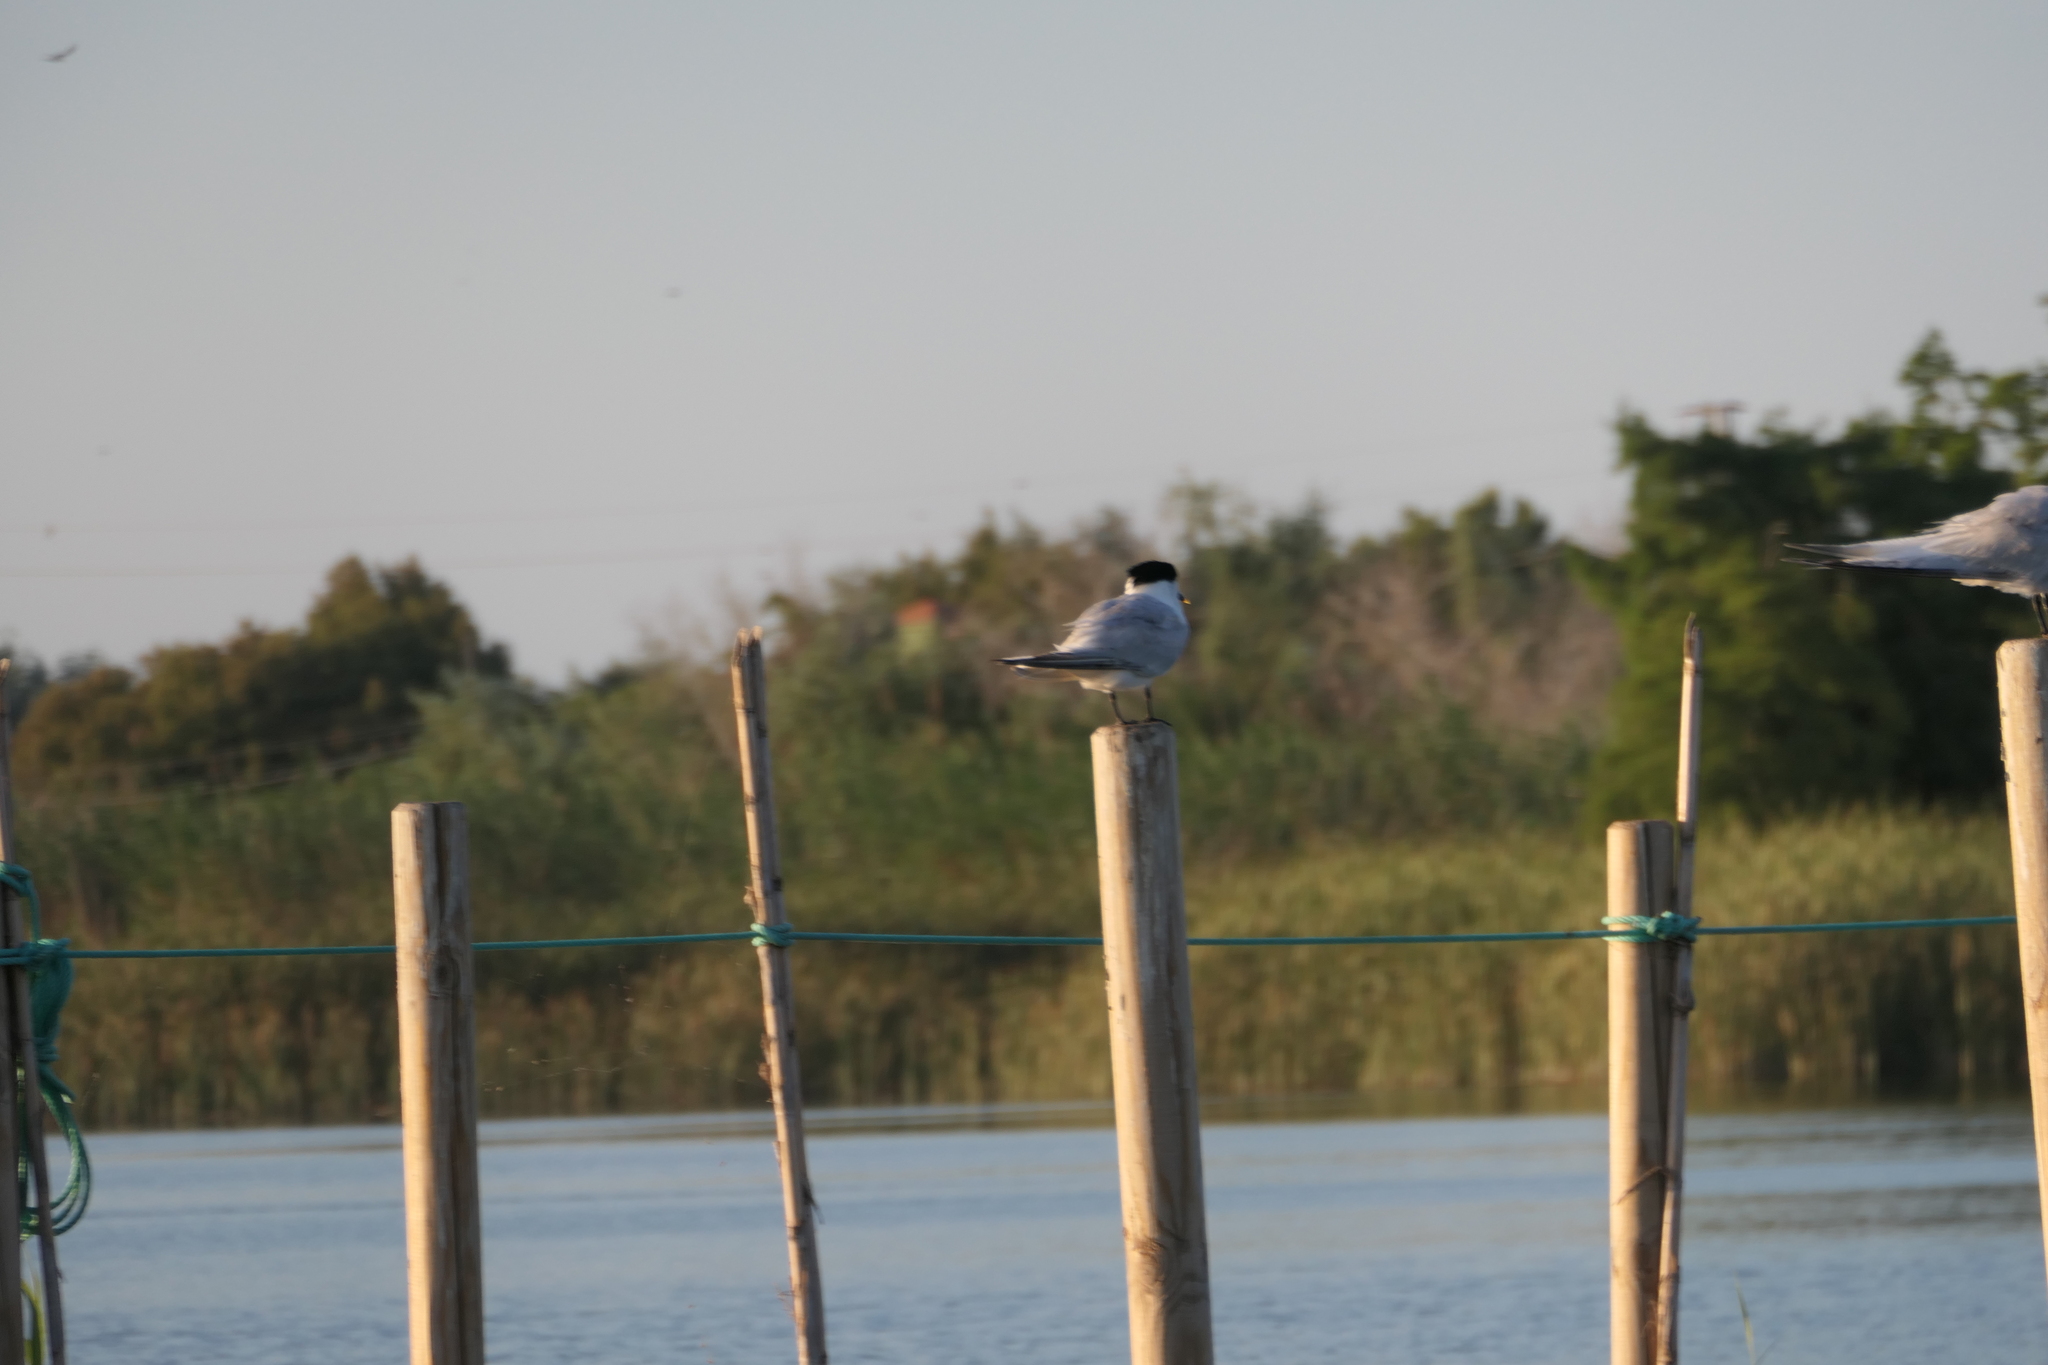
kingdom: Animalia
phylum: Chordata
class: Aves
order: Charadriiformes
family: Laridae
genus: Thalasseus
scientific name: Thalasseus sandvicensis
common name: Sandwich tern
